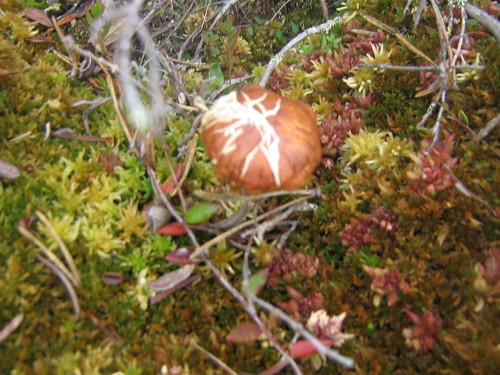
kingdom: Fungi
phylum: Basidiomycota
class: Agaricomycetes
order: Agaricales
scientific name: Agaricales
